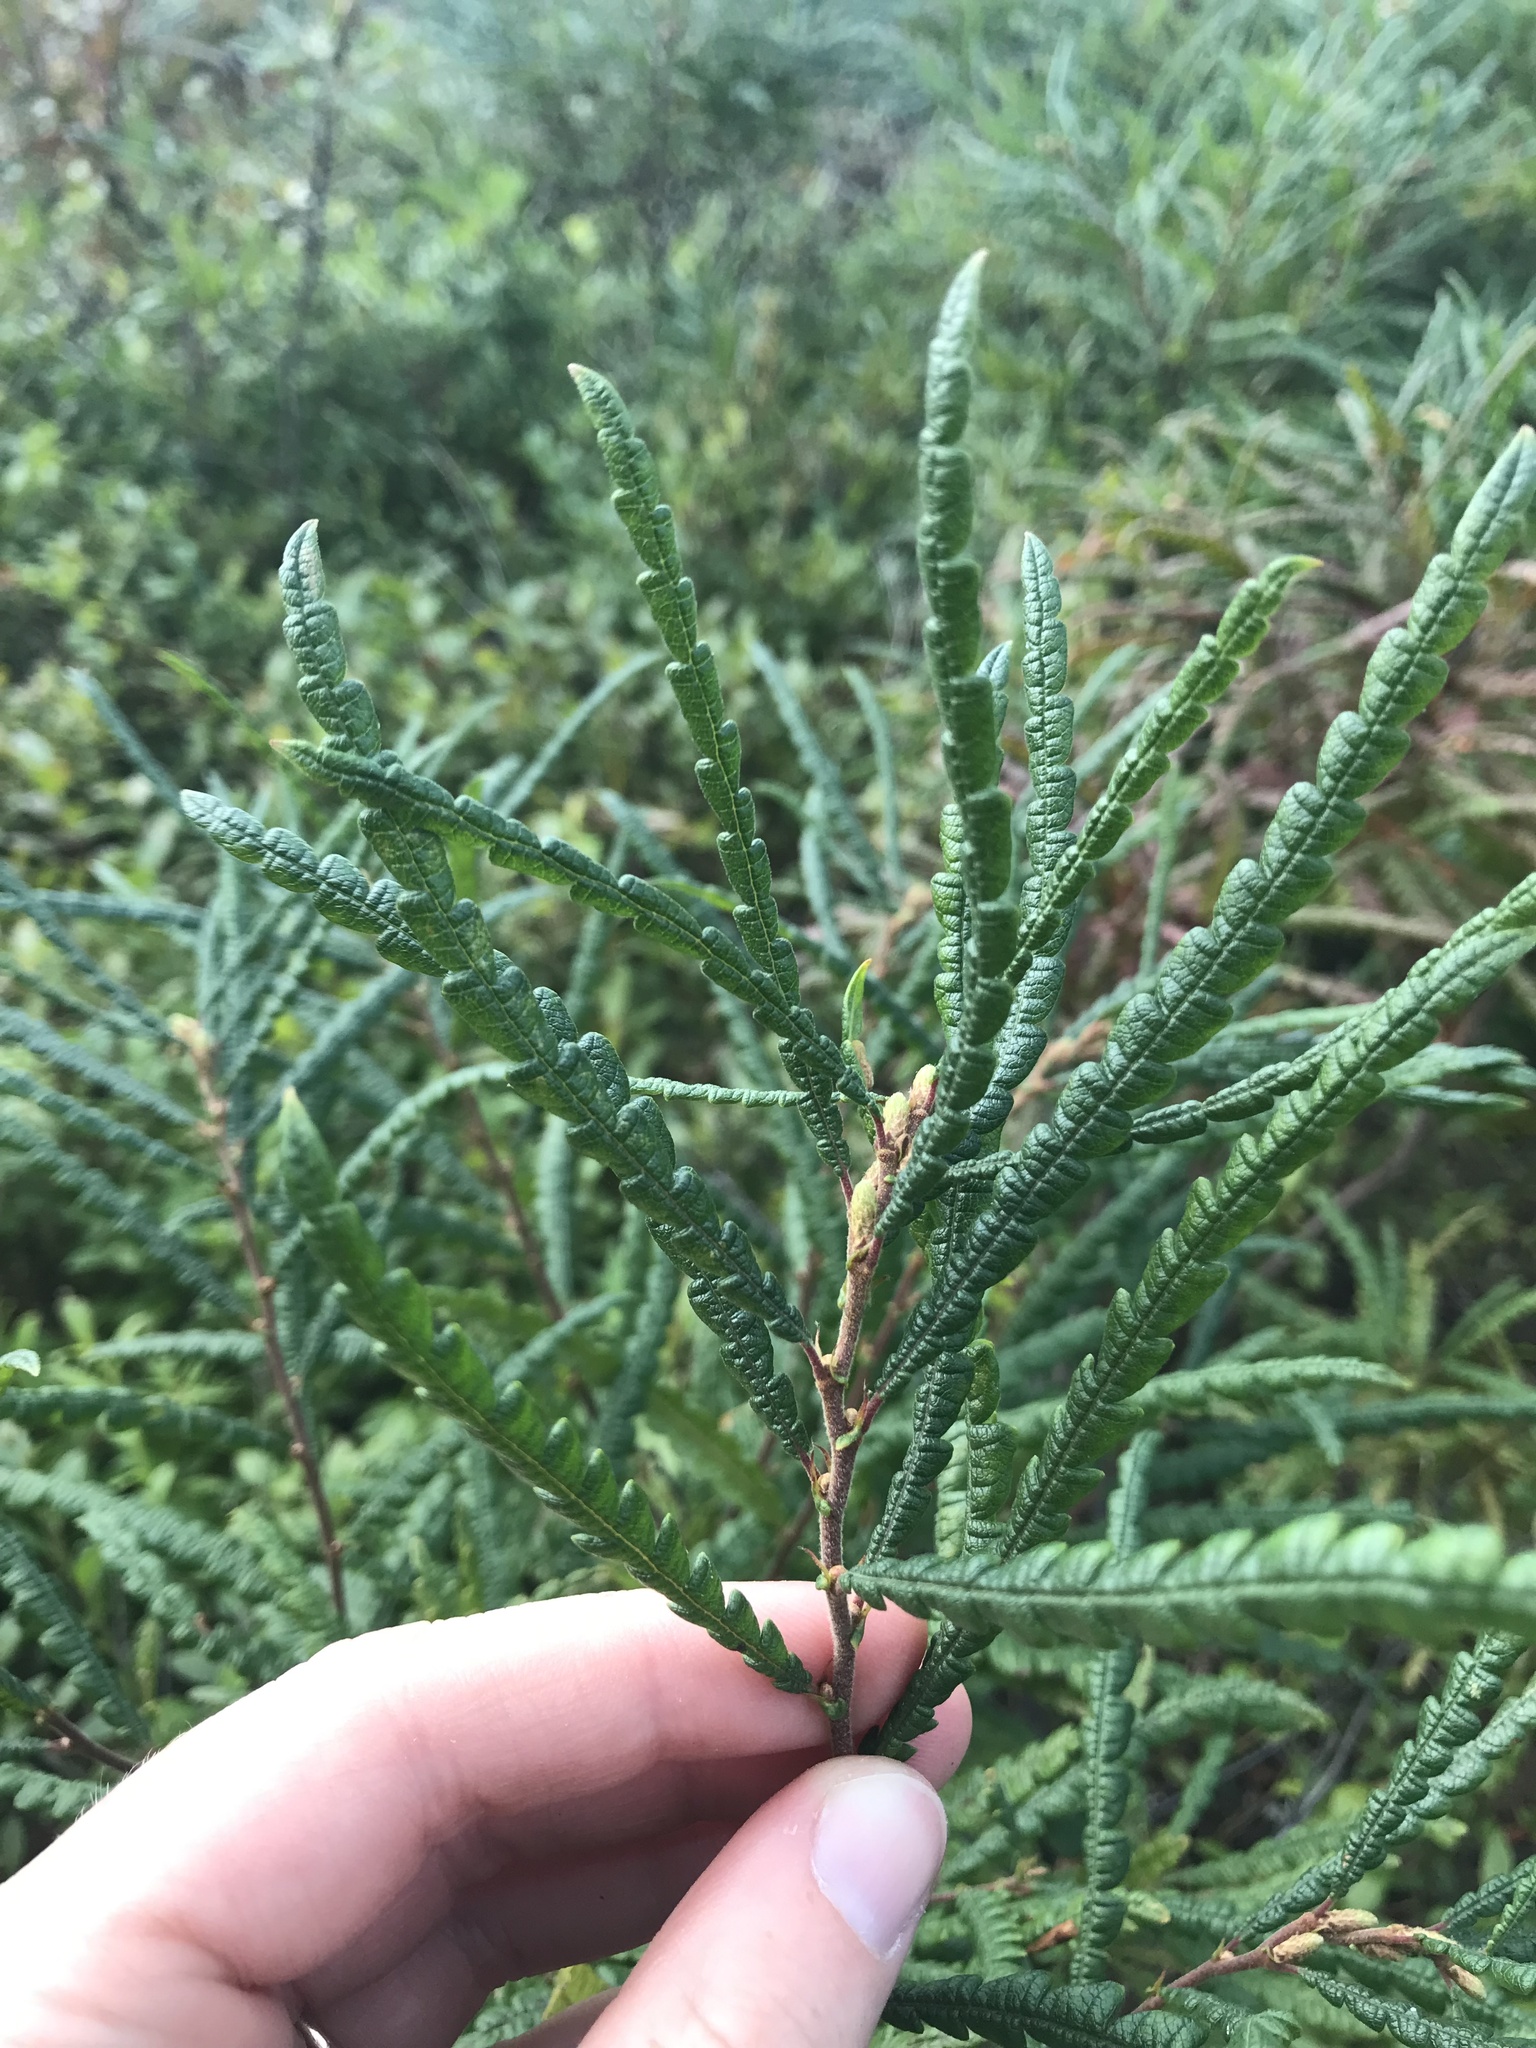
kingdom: Plantae
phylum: Tracheophyta
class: Magnoliopsida
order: Fagales
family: Myricaceae
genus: Comptonia
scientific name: Comptonia peregrina
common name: Sweet-fern
